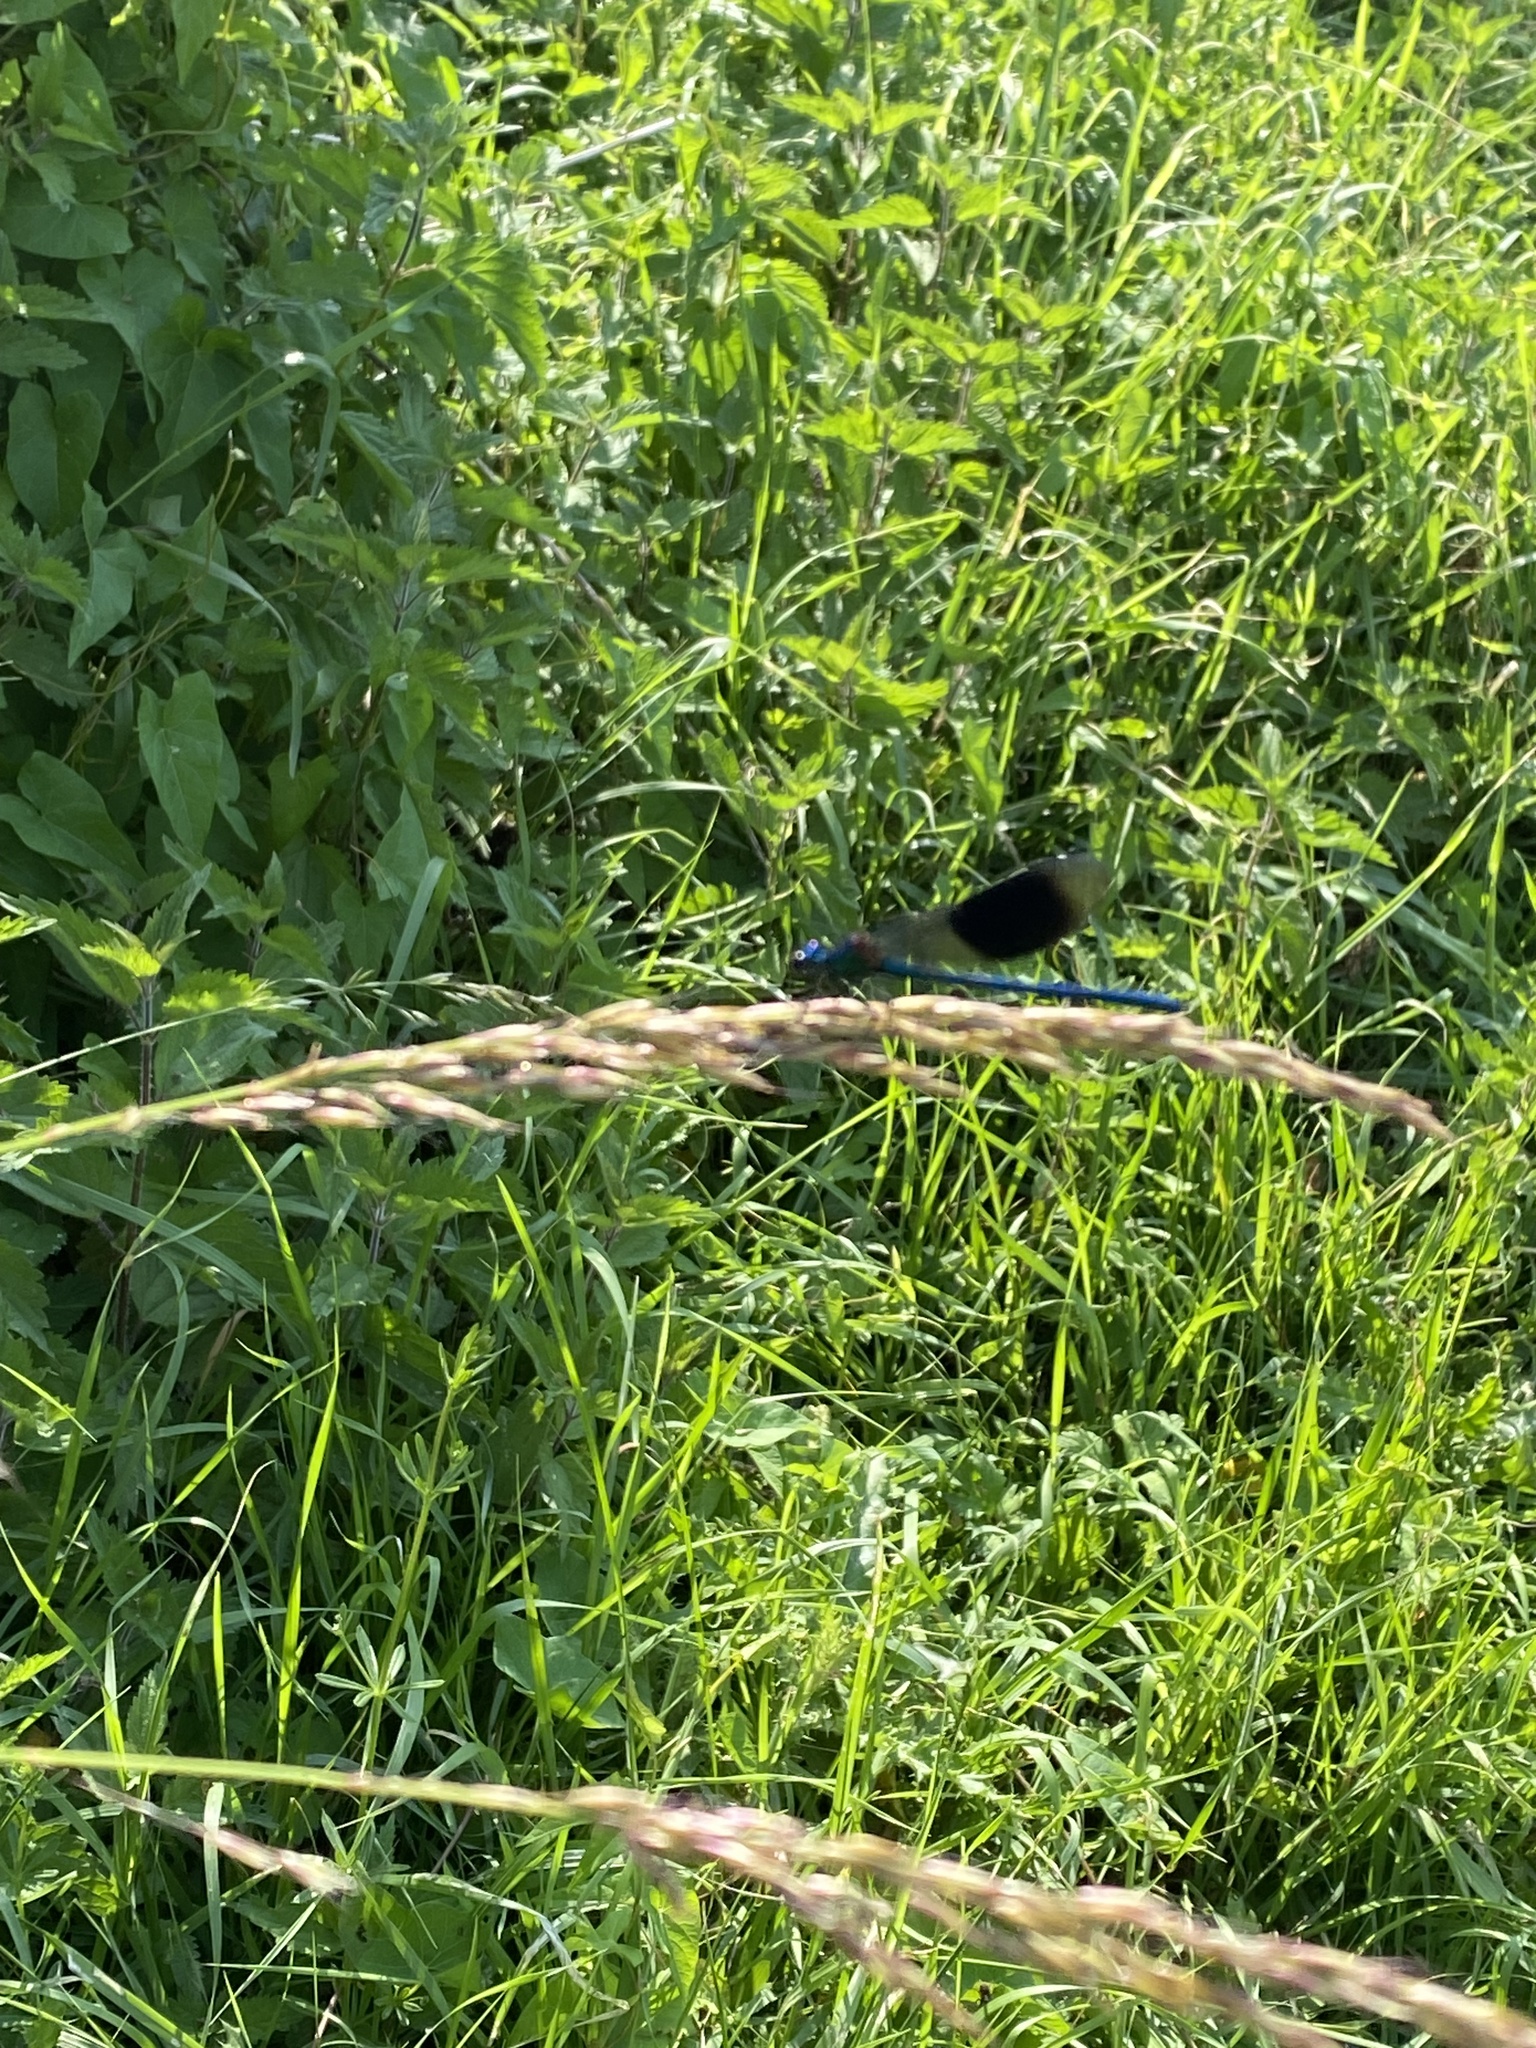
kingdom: Animalia
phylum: Arthropoda
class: Insecta
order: Odonata
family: Calopterygidae
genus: Calopteryx
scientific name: Calopteryx splendens
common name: Banded demoiselle
